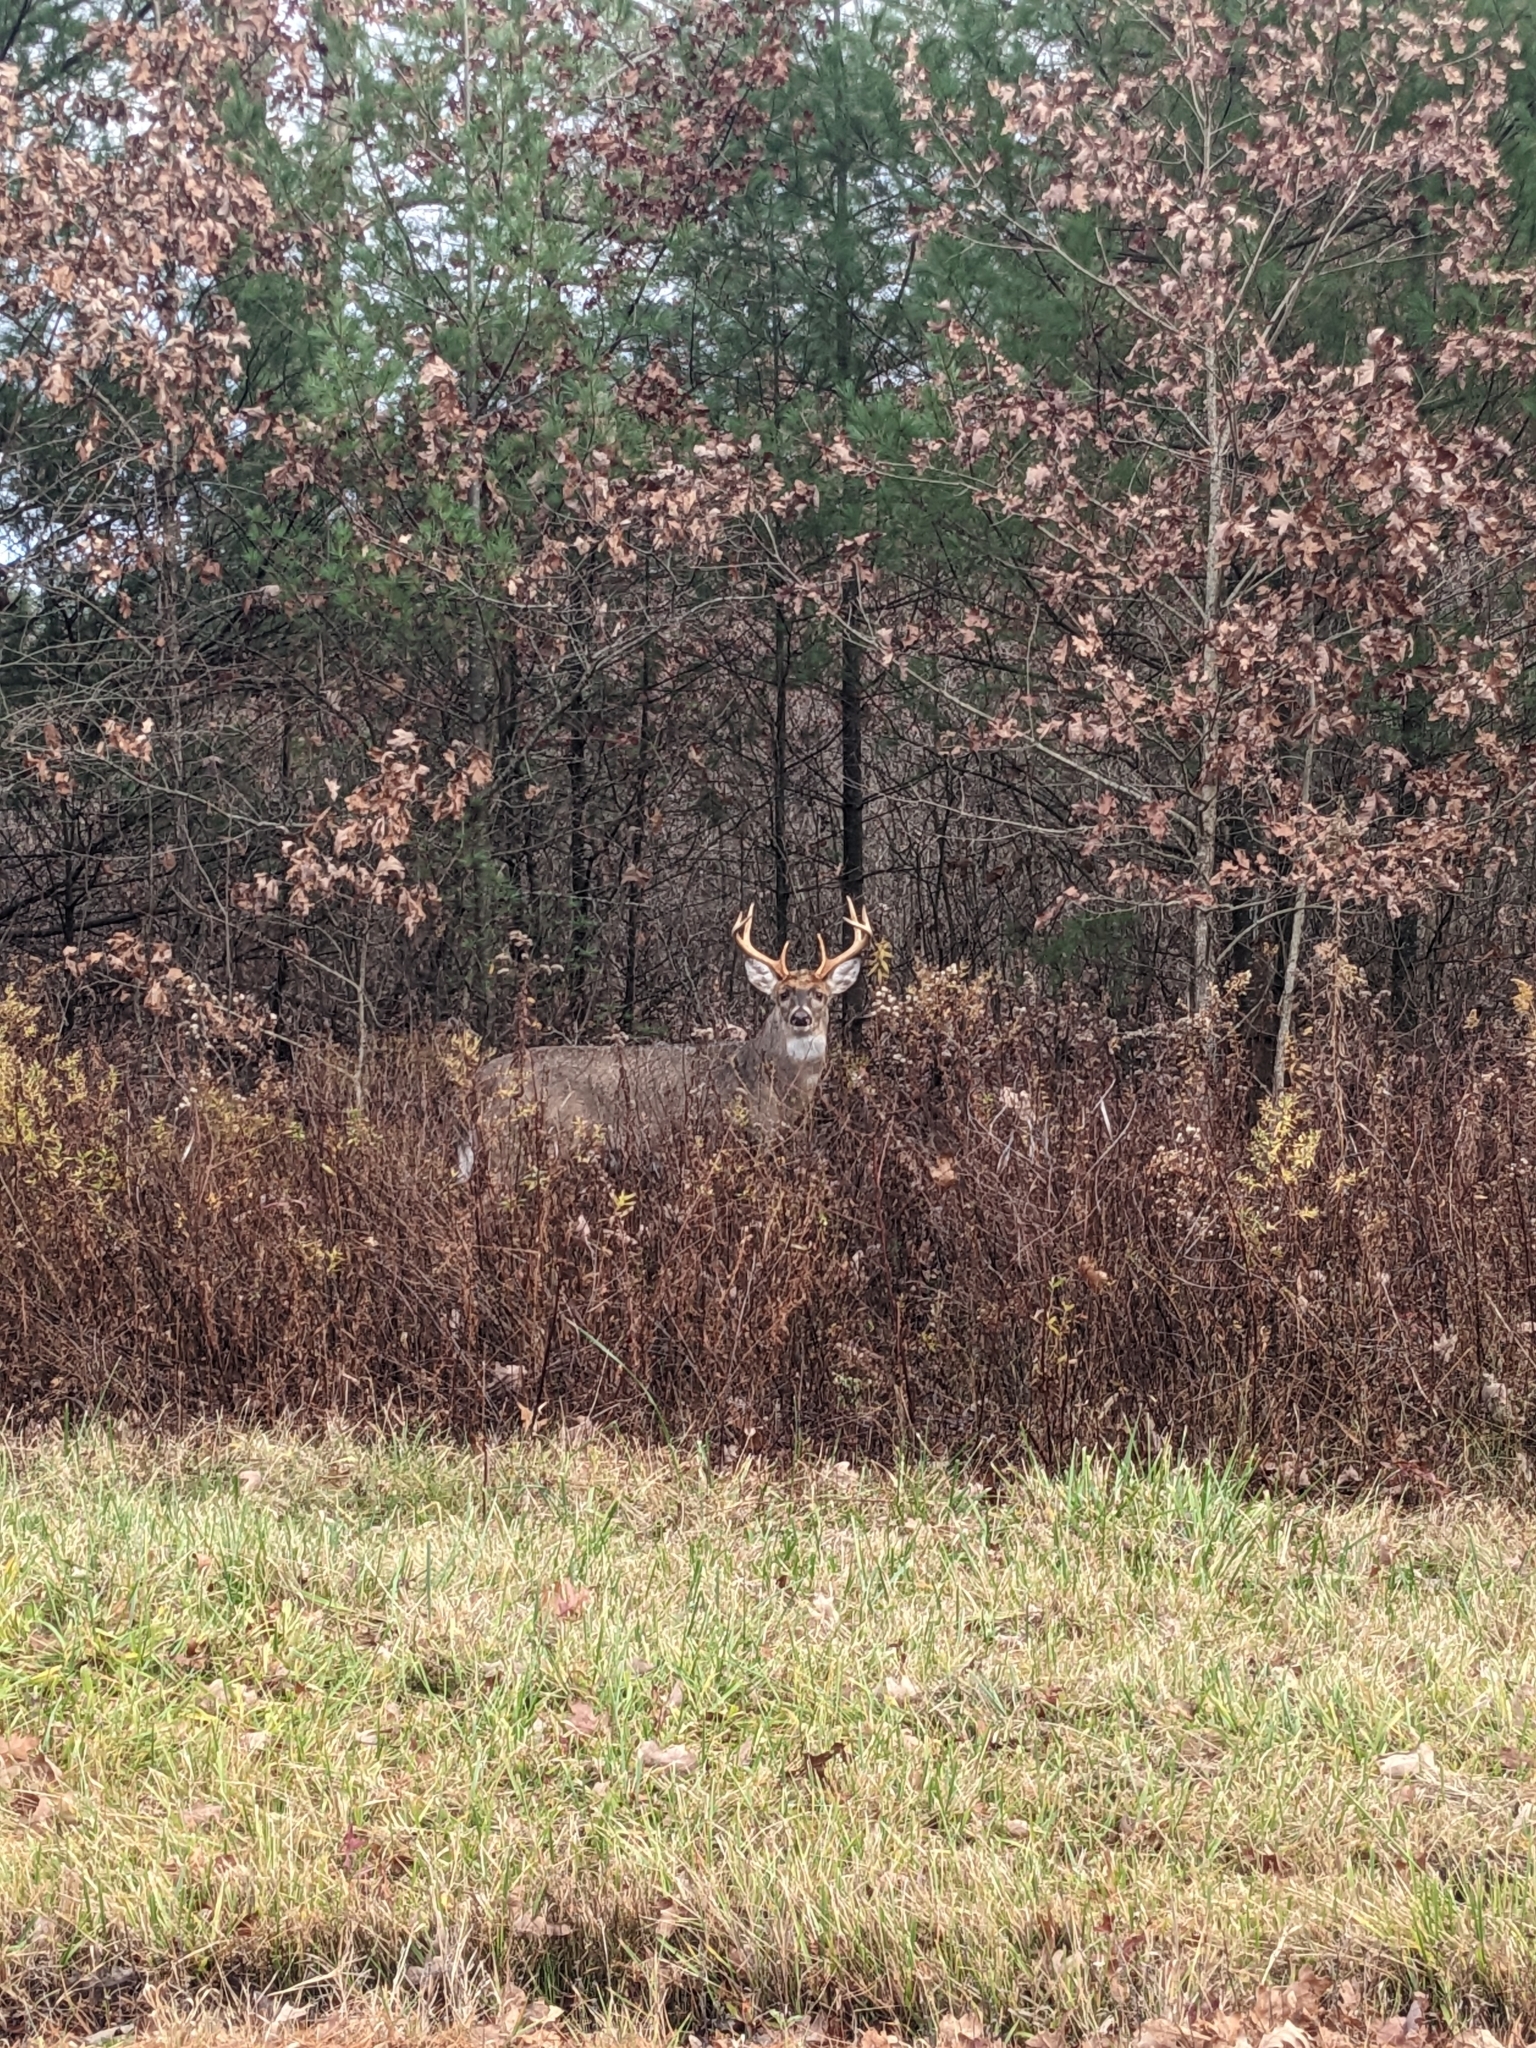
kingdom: Animalia
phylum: Chordata
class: Mammalia
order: Artiodactyla
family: Cervidae
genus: Odocoileus
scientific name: Odocoileus virginianus
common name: White-tailed deer
